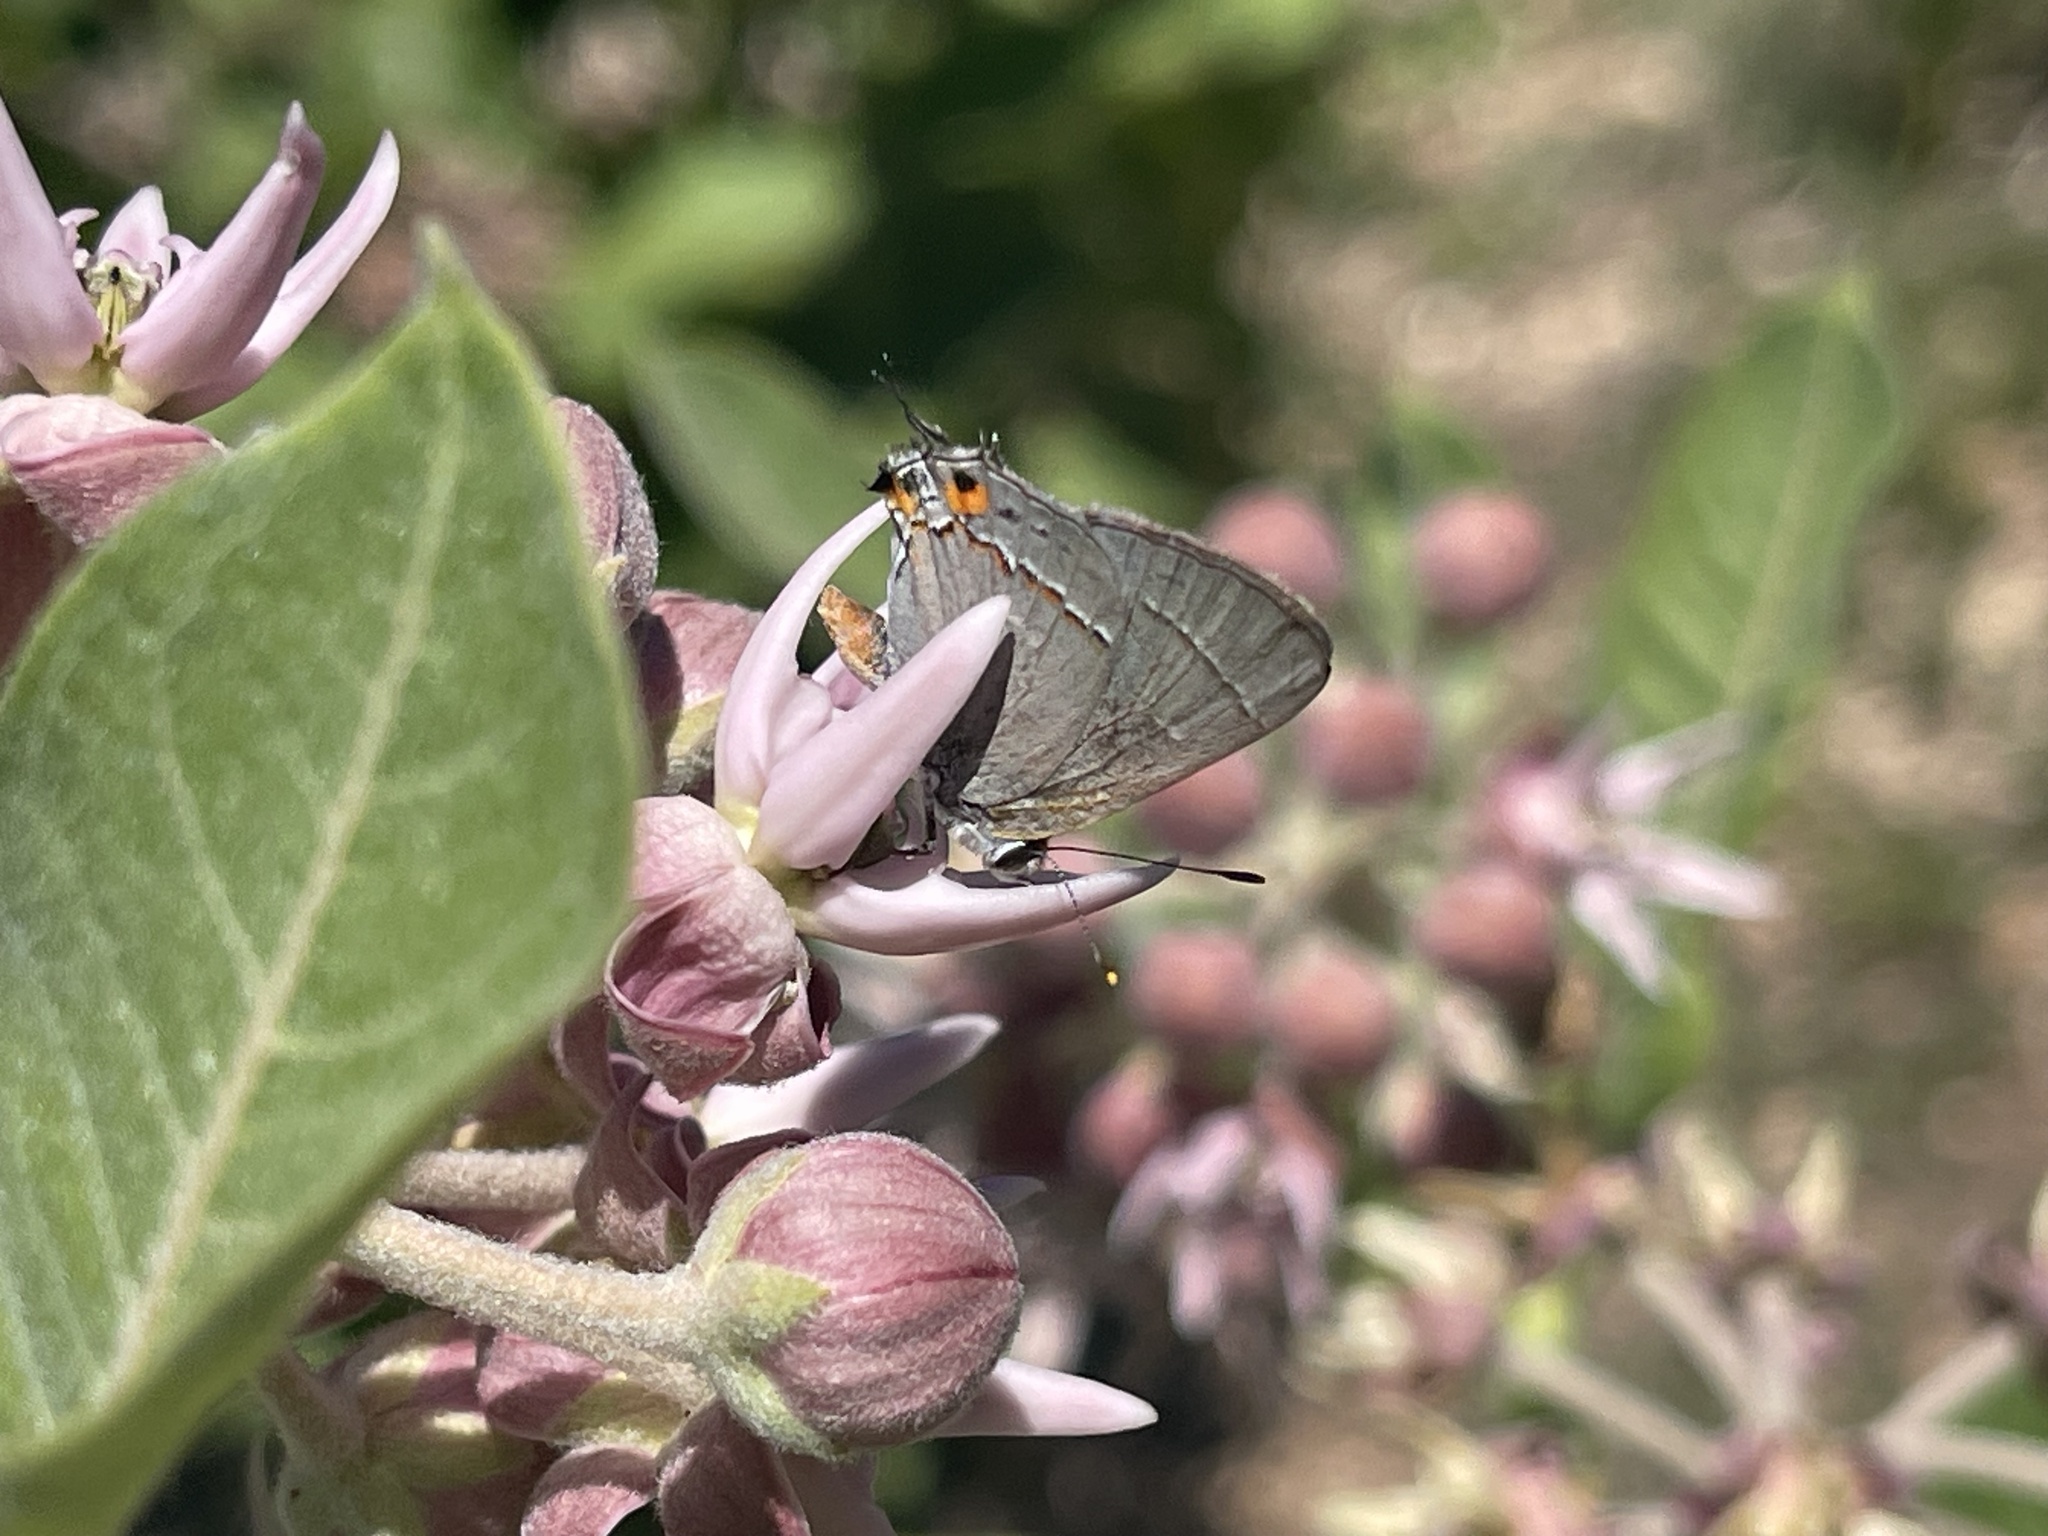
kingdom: Animalia
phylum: Arthropoda
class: Insecta
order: Lepidoptera
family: Lycaenidae
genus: Strymon
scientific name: Strymon melinus
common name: Gray hairstreak
